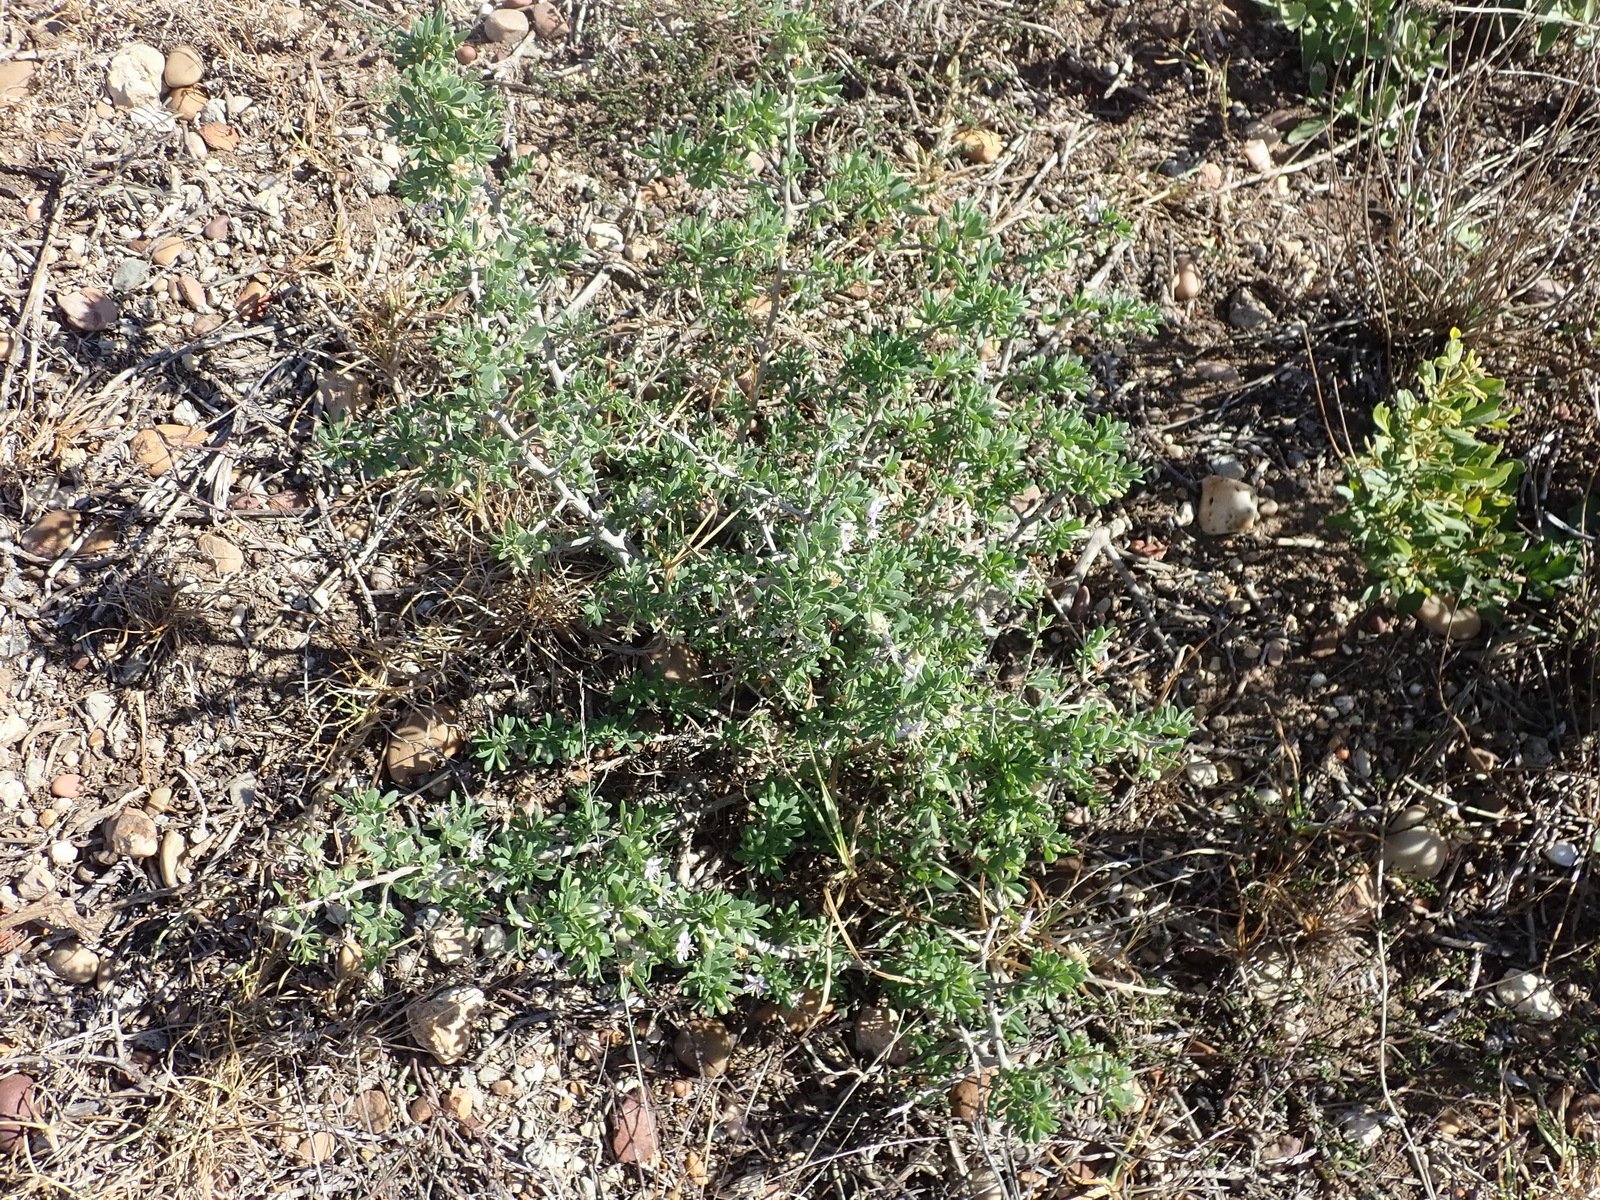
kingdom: Plantae
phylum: Tracheophyta
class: Magnoliopsida
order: Solanales
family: Solanaceae
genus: Lycium
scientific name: Lycium ferocissimum
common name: African boxthorn
